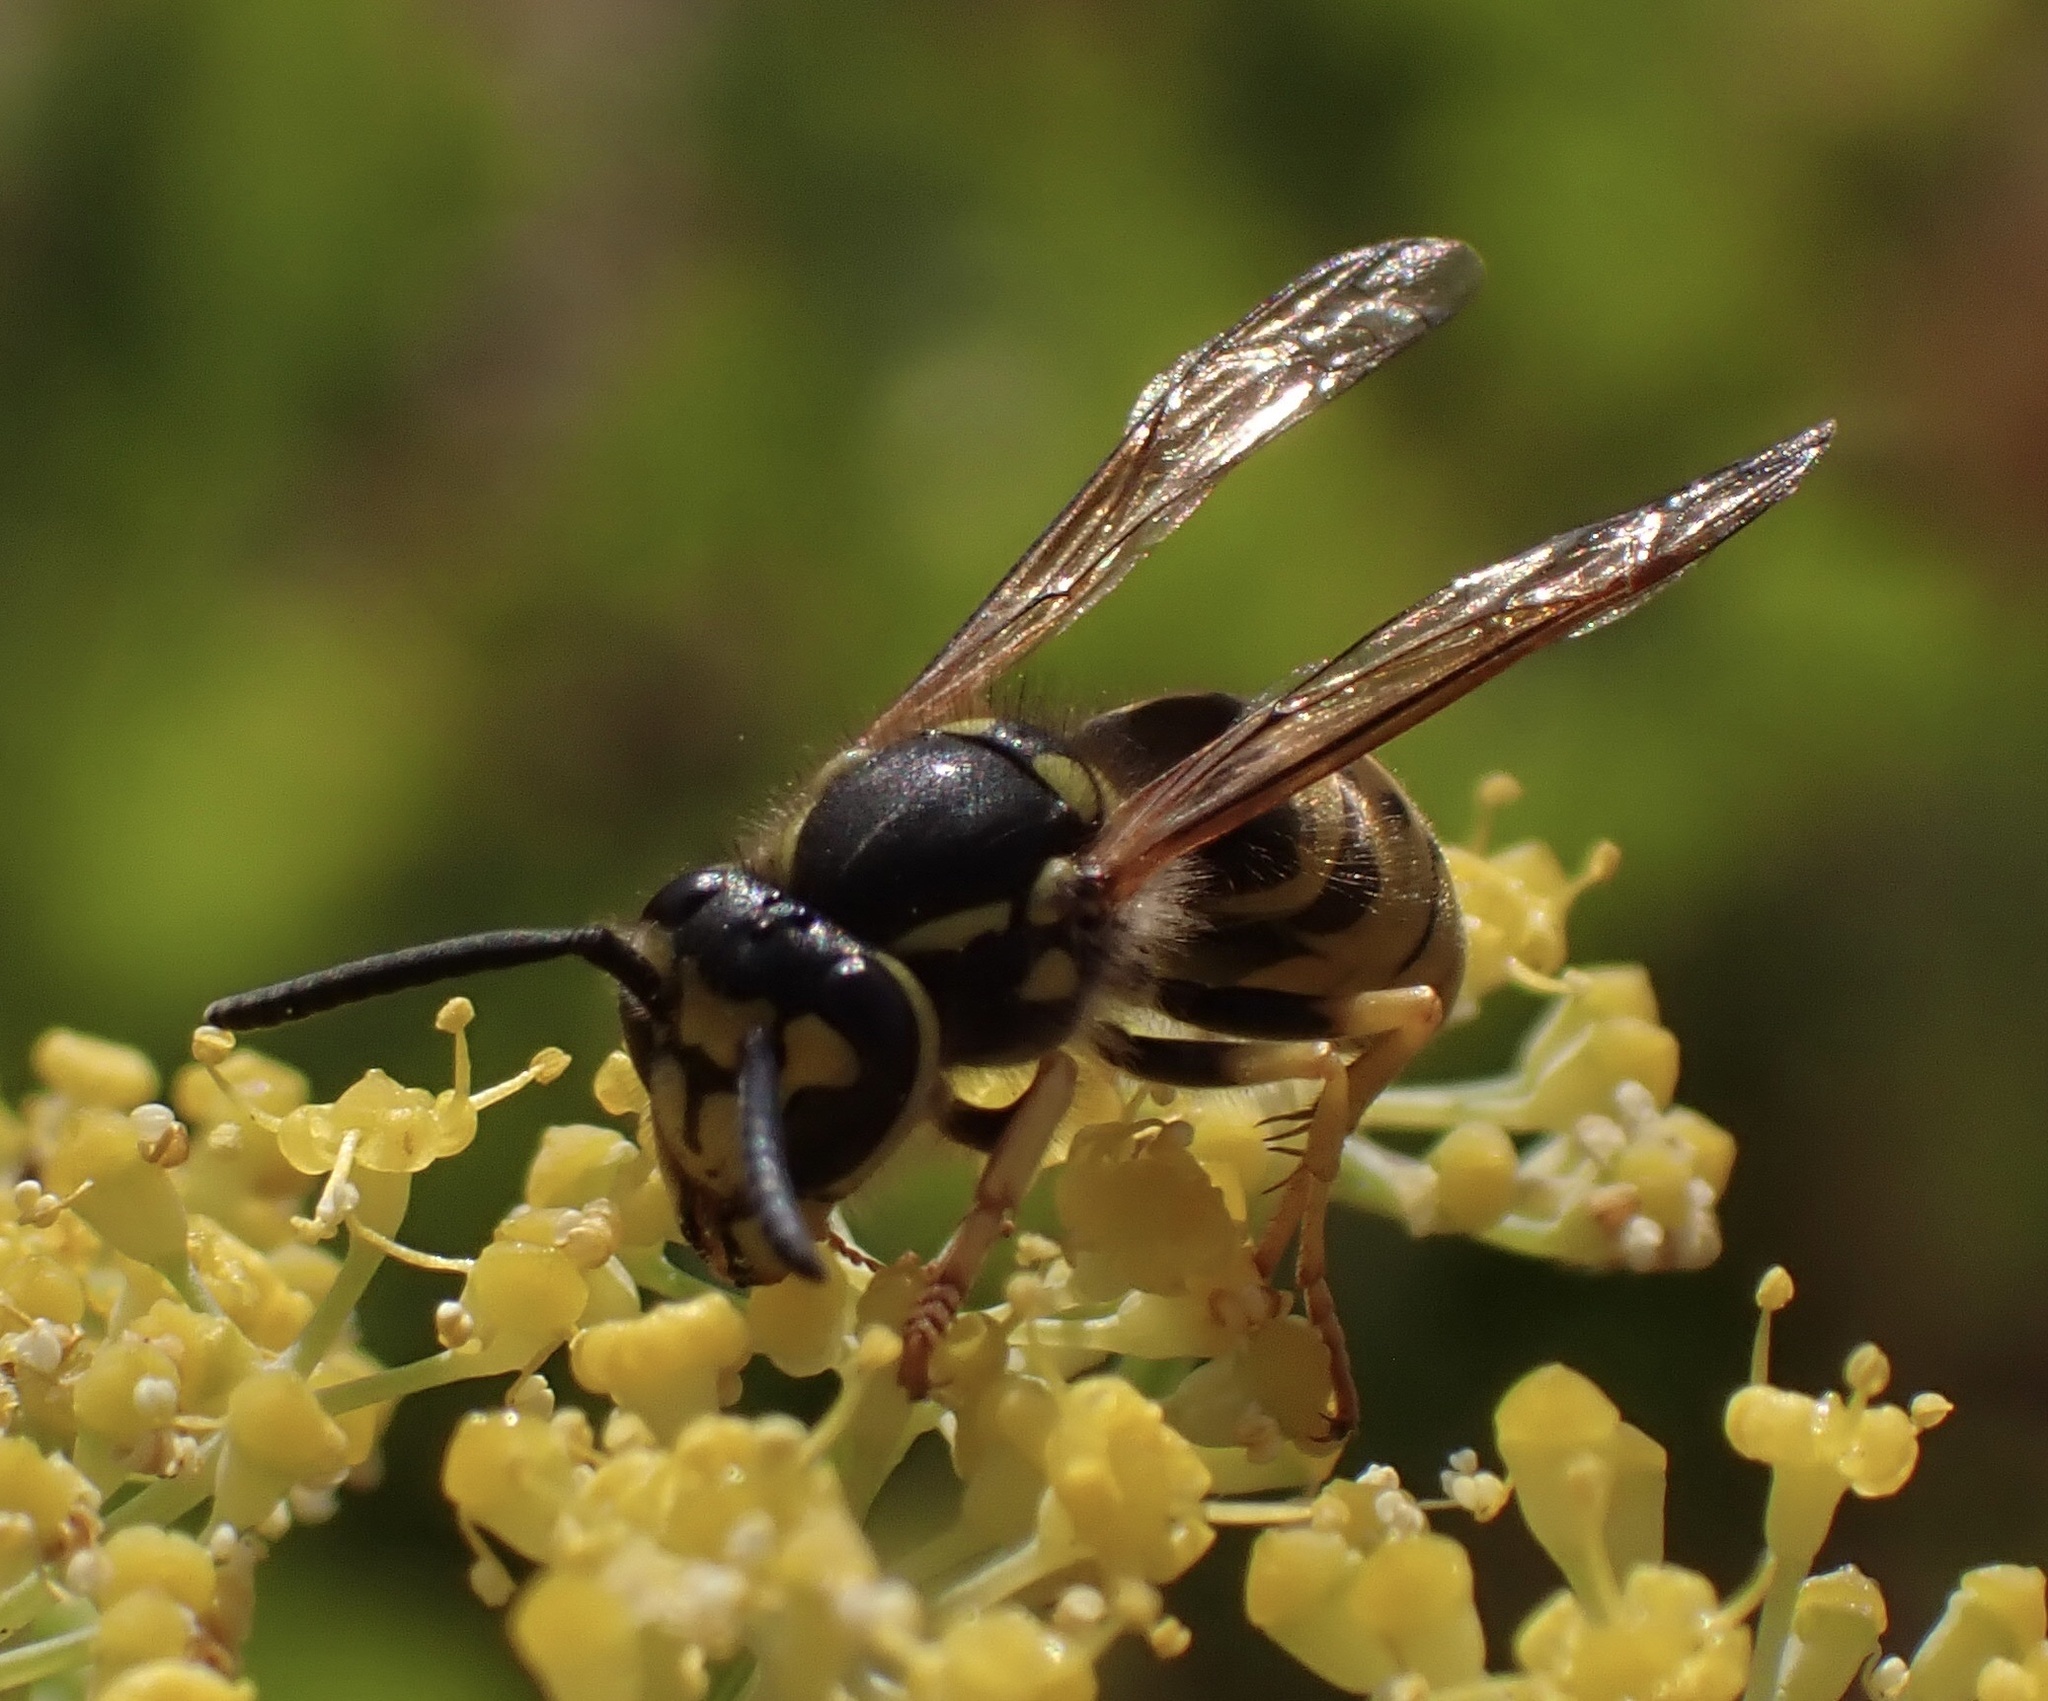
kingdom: Animalia
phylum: Arthropoda
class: Insecta
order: Hymenoptera
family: Vespidae
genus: Vespula
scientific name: Vespula germanica
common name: German wasp
